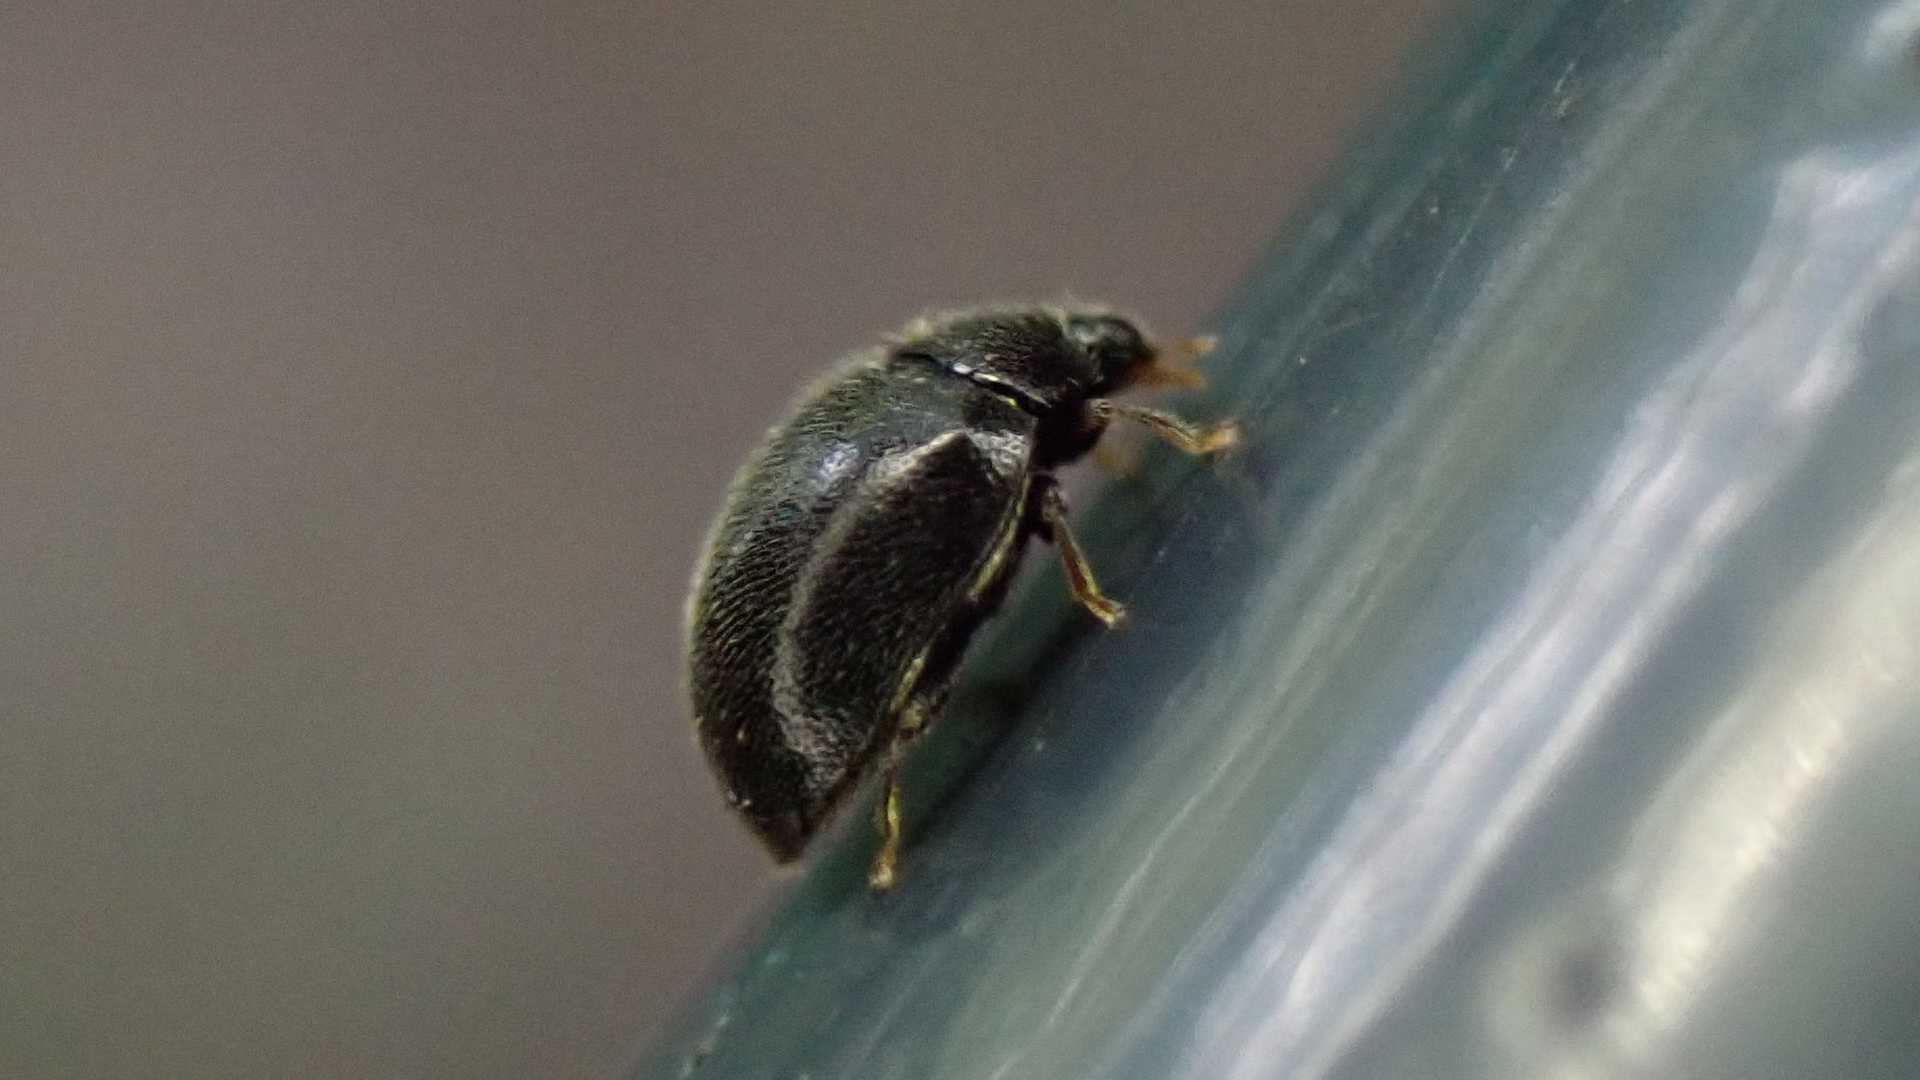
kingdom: Animalia
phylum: Arthropoda
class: Insecta
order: Coleoptera
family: Coccinellidae
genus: Stethorus
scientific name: Stethorus pusillus
